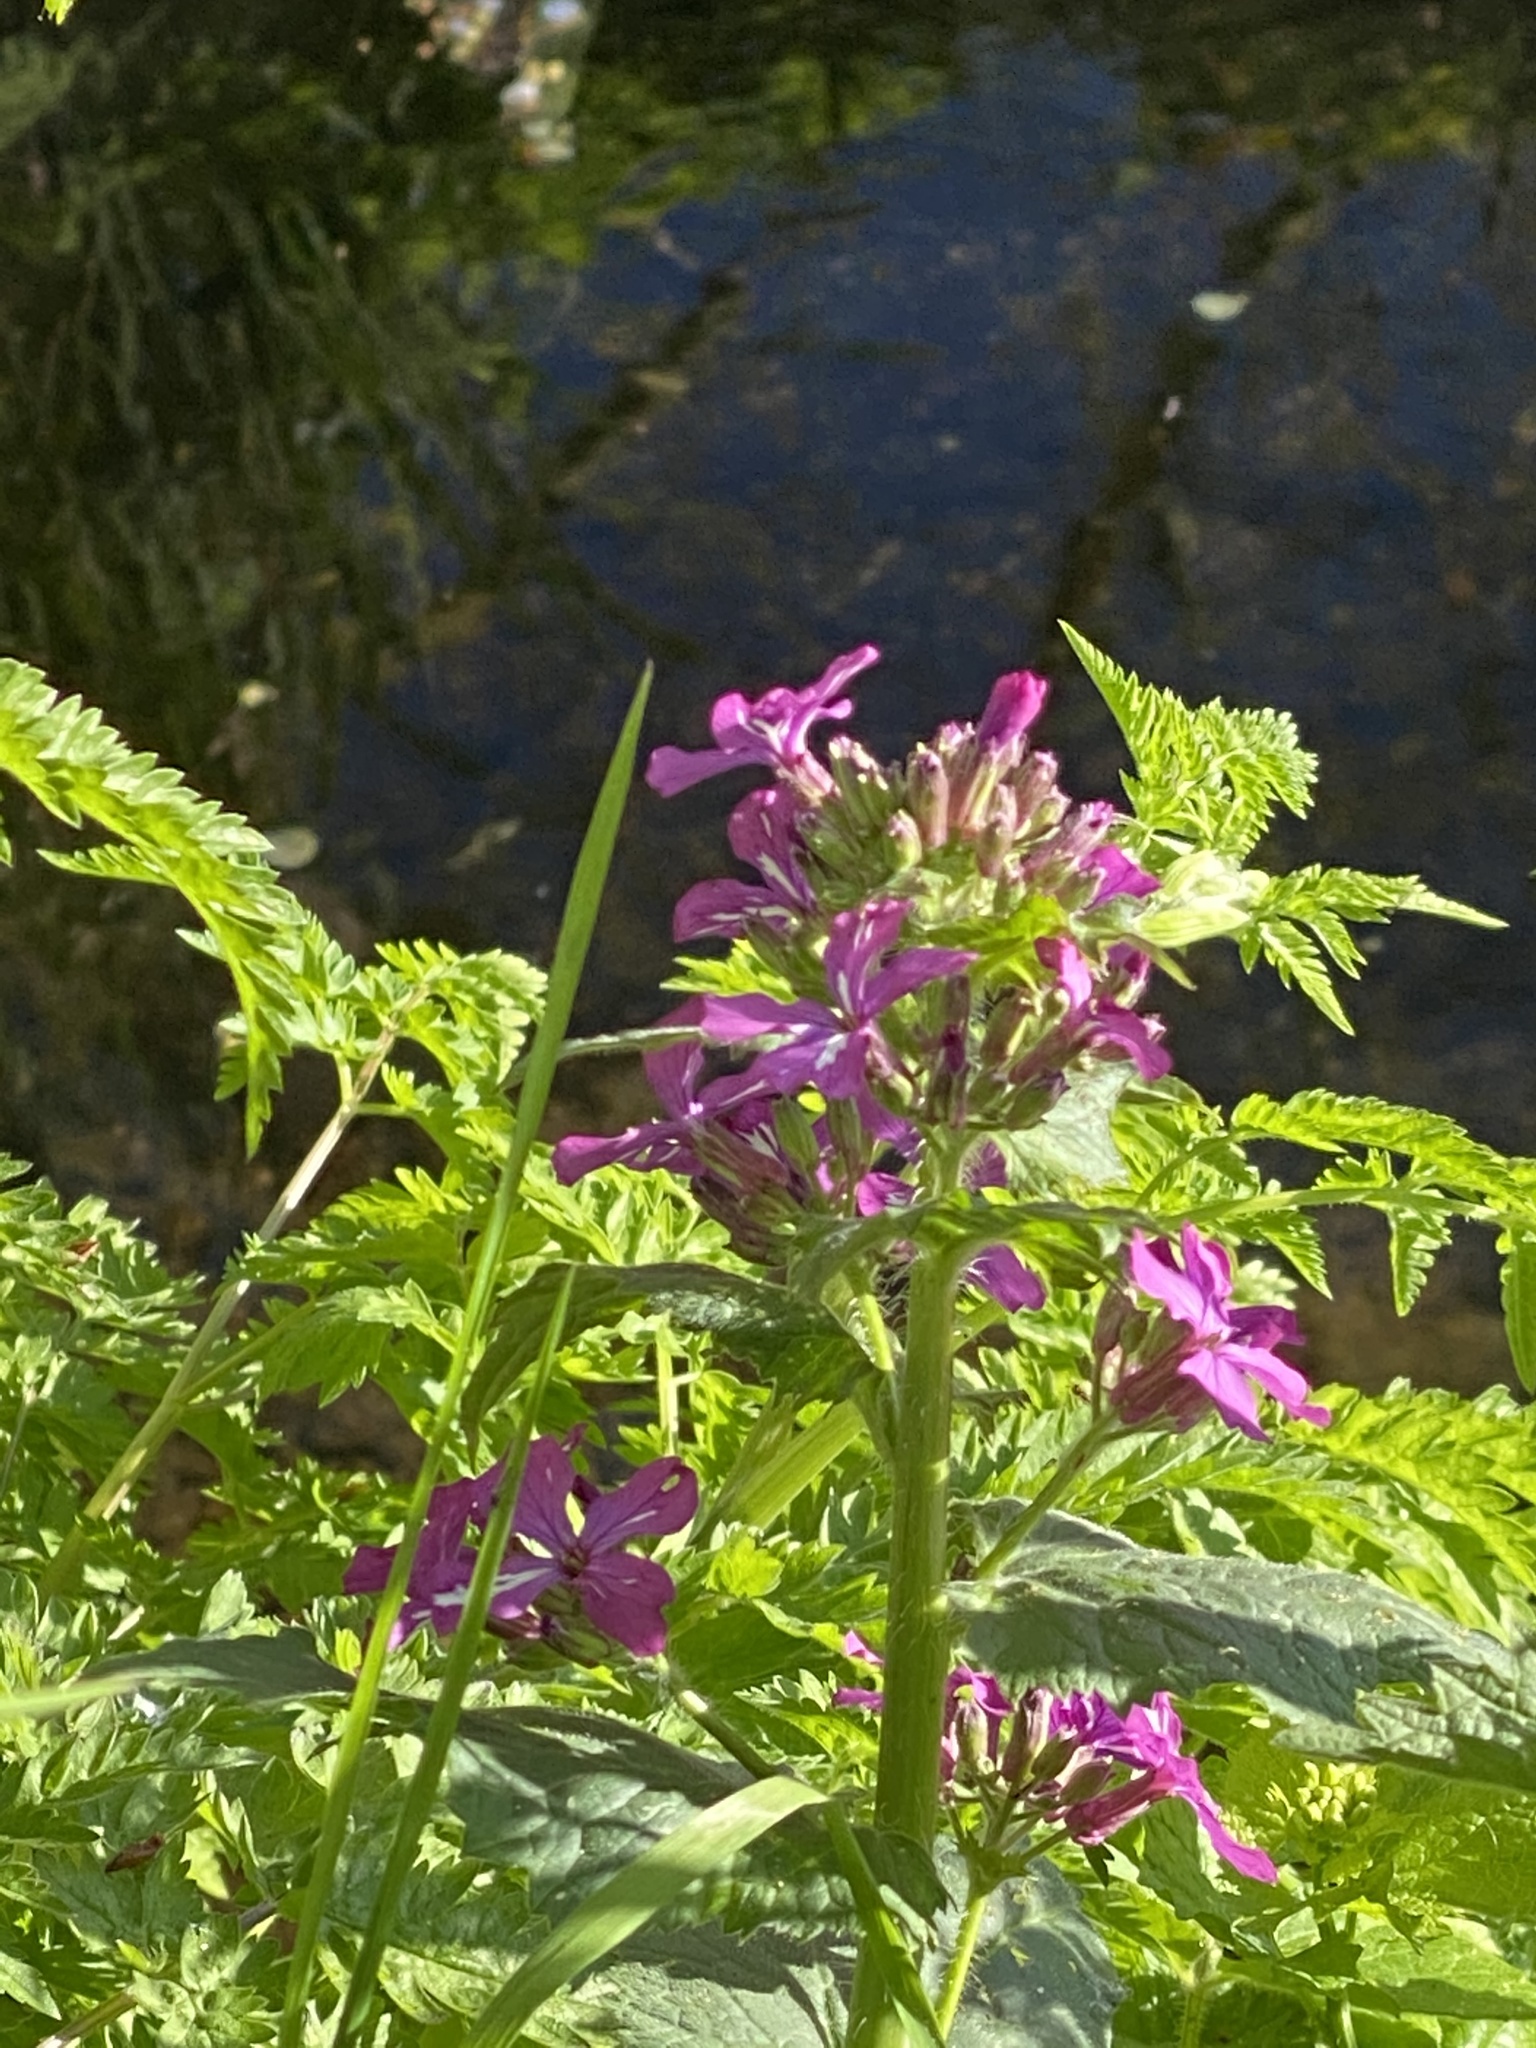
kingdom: Plantae
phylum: Tracheophyta
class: Magnoliopsida
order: Brassicales
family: Brassicaceae
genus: Lunaria
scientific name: Lunaria annua
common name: Honesty
